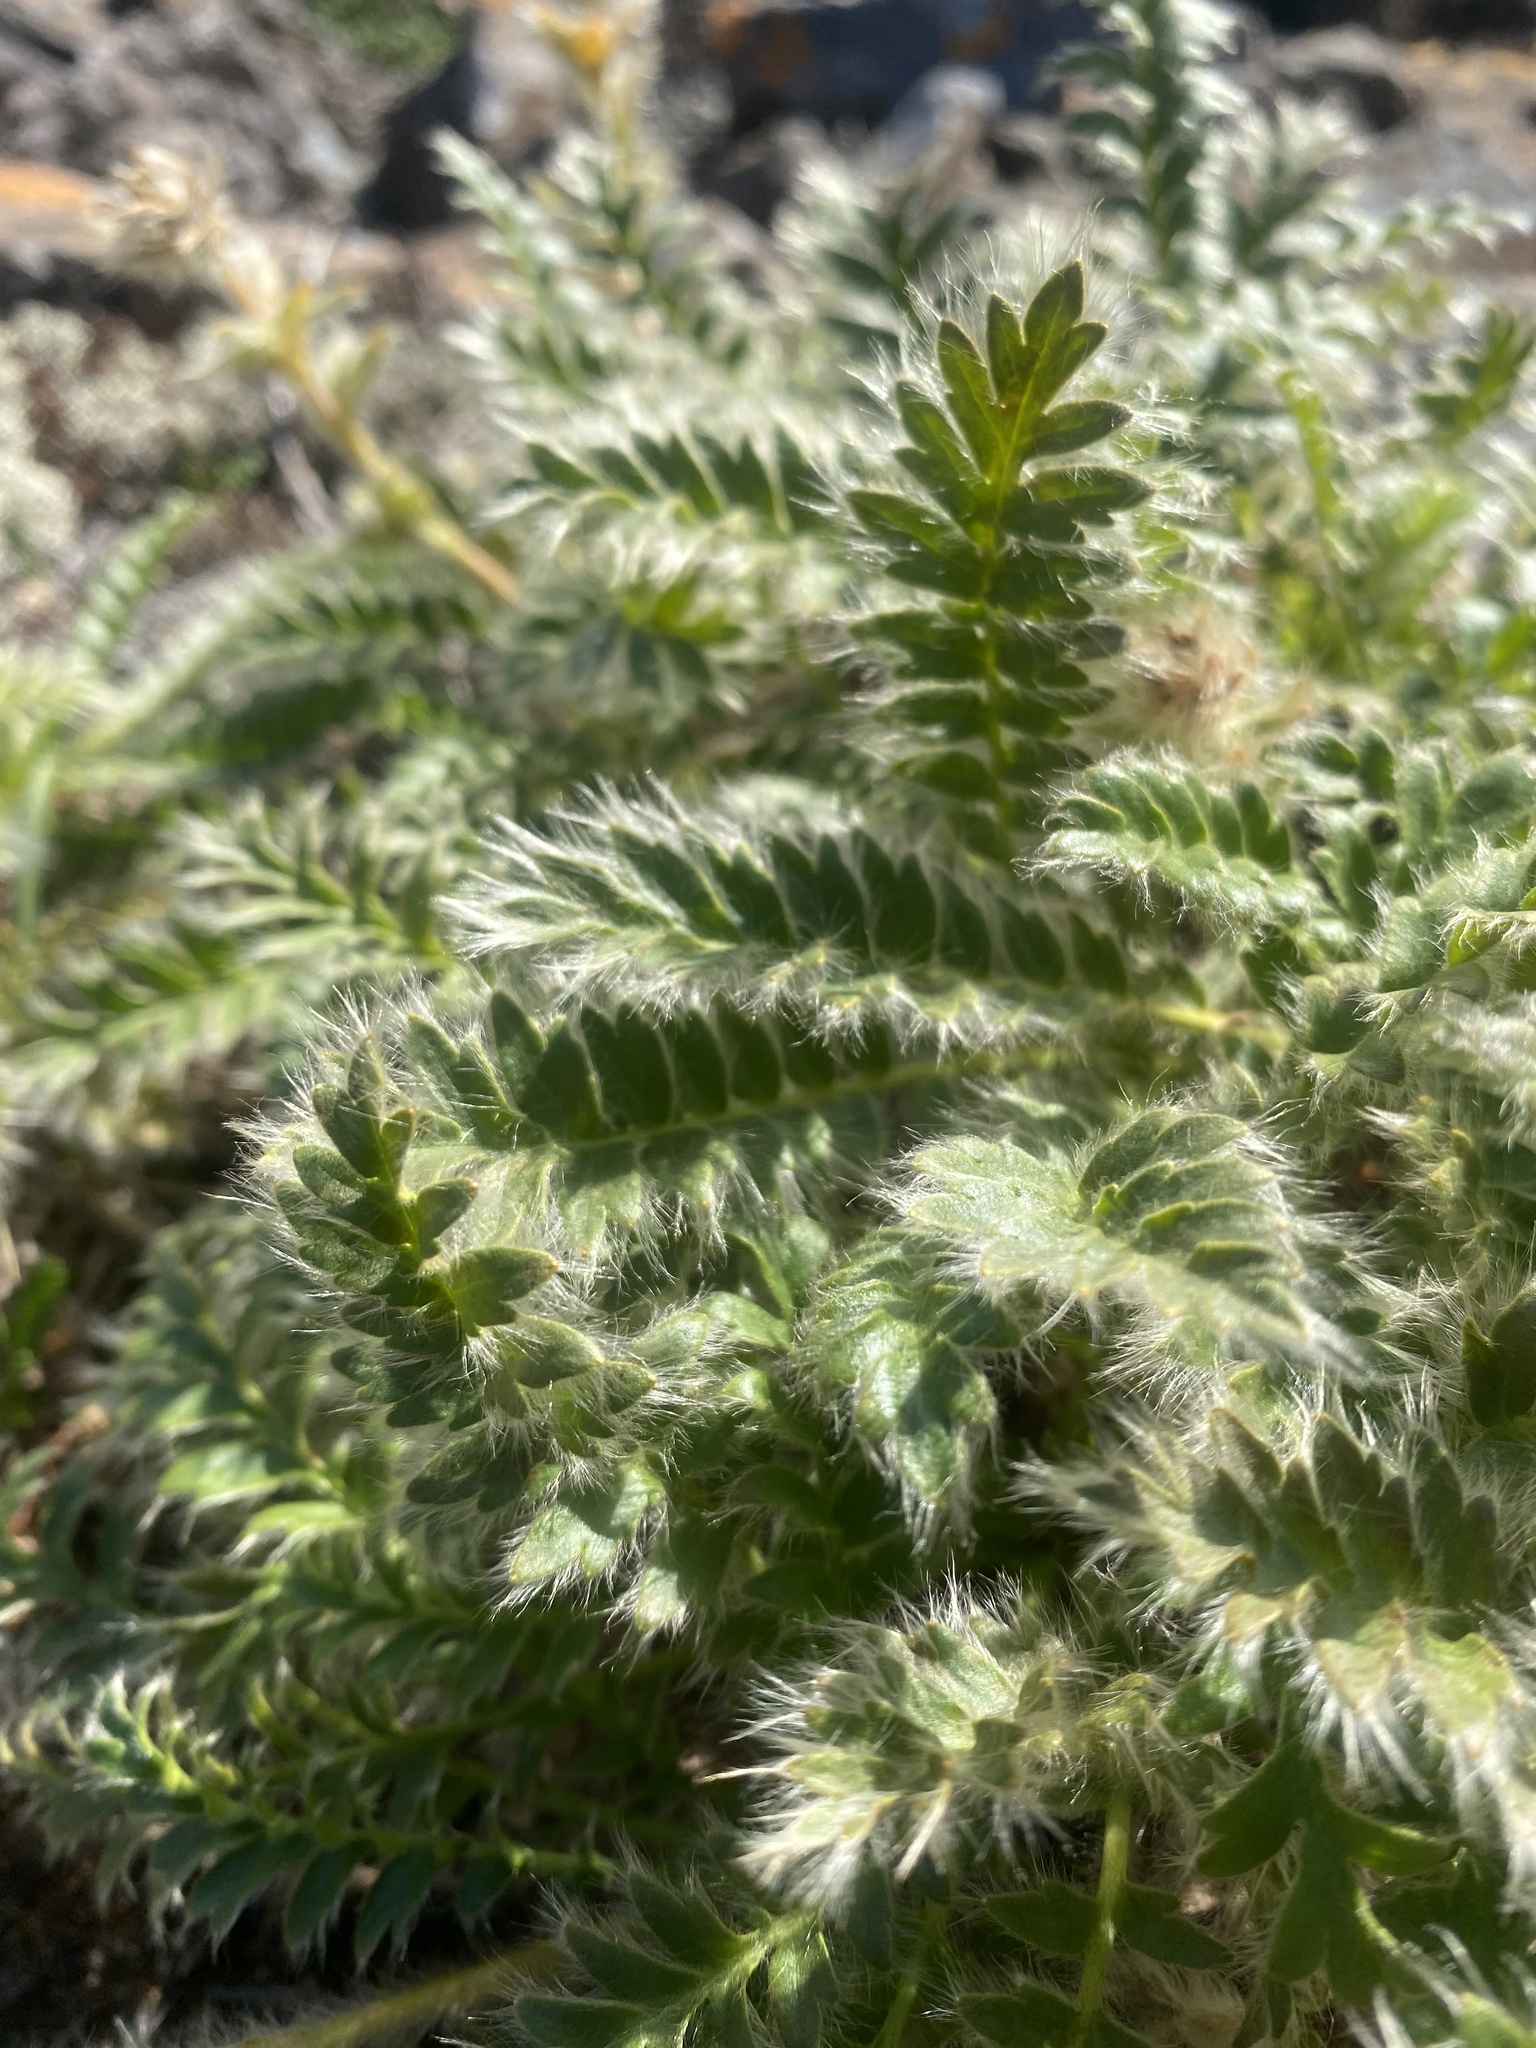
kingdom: Plantae
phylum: Tracheophyta
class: Magnoliopsida
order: Rosales
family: Rosaceae
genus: Geum
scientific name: Geum glaciale
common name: Glacier avens
